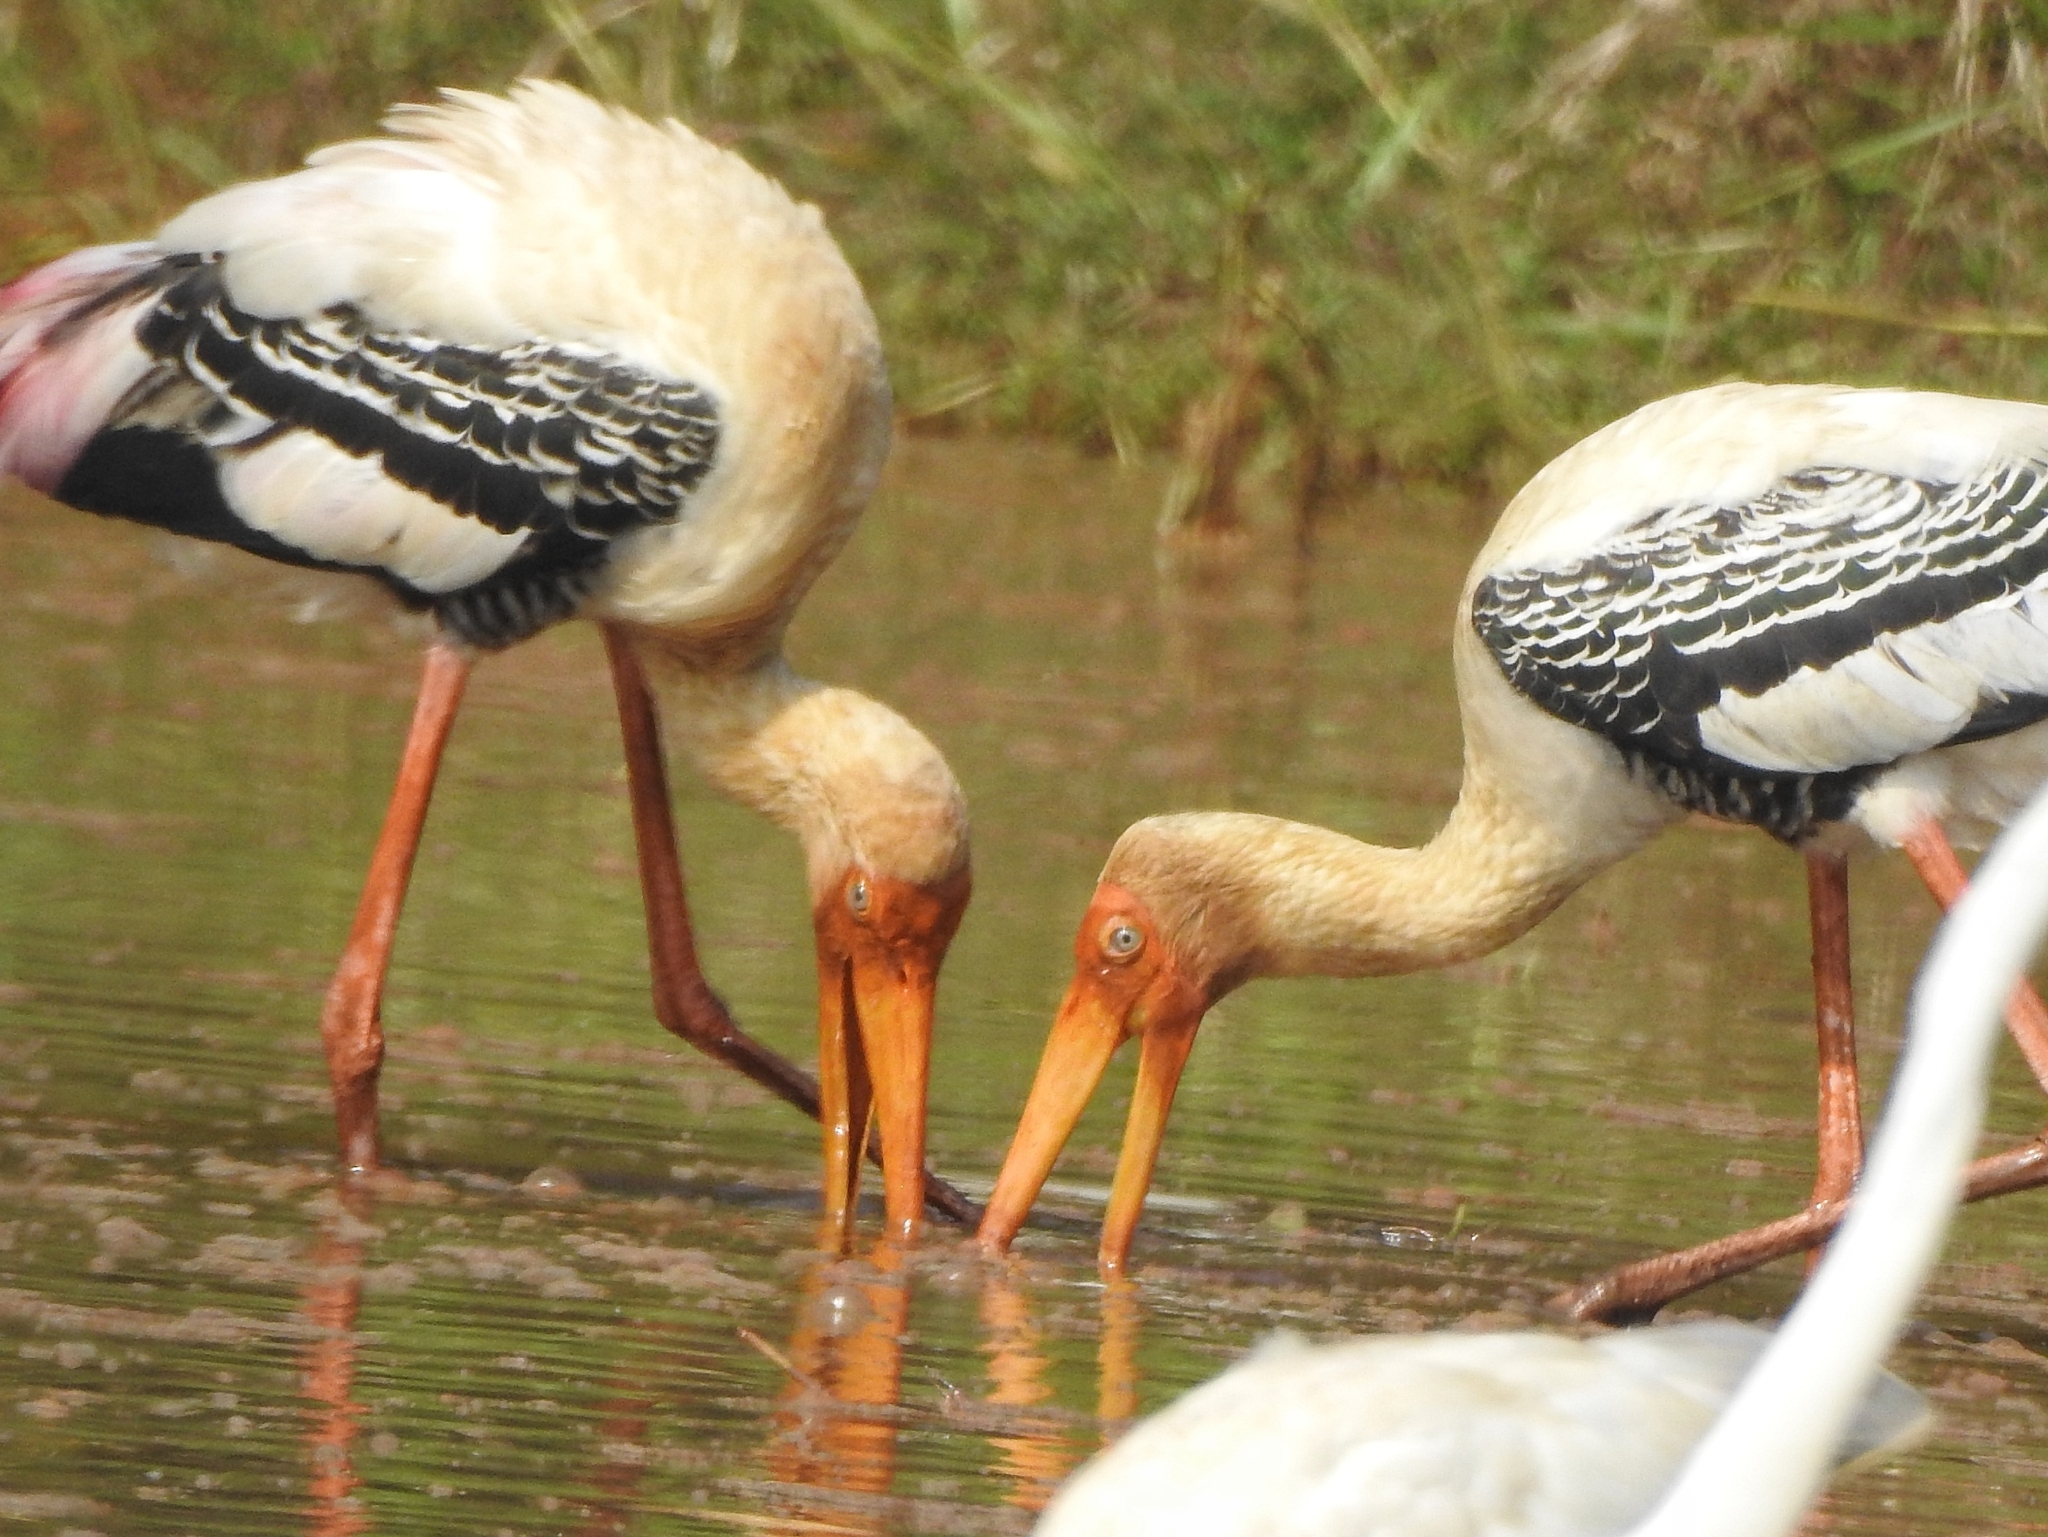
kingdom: Animalia
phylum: Chordata
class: Aves
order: Ciconiiformes
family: Ciconiidae
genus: Mycteria
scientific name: Mycteria leucocephala
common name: Painted stork
